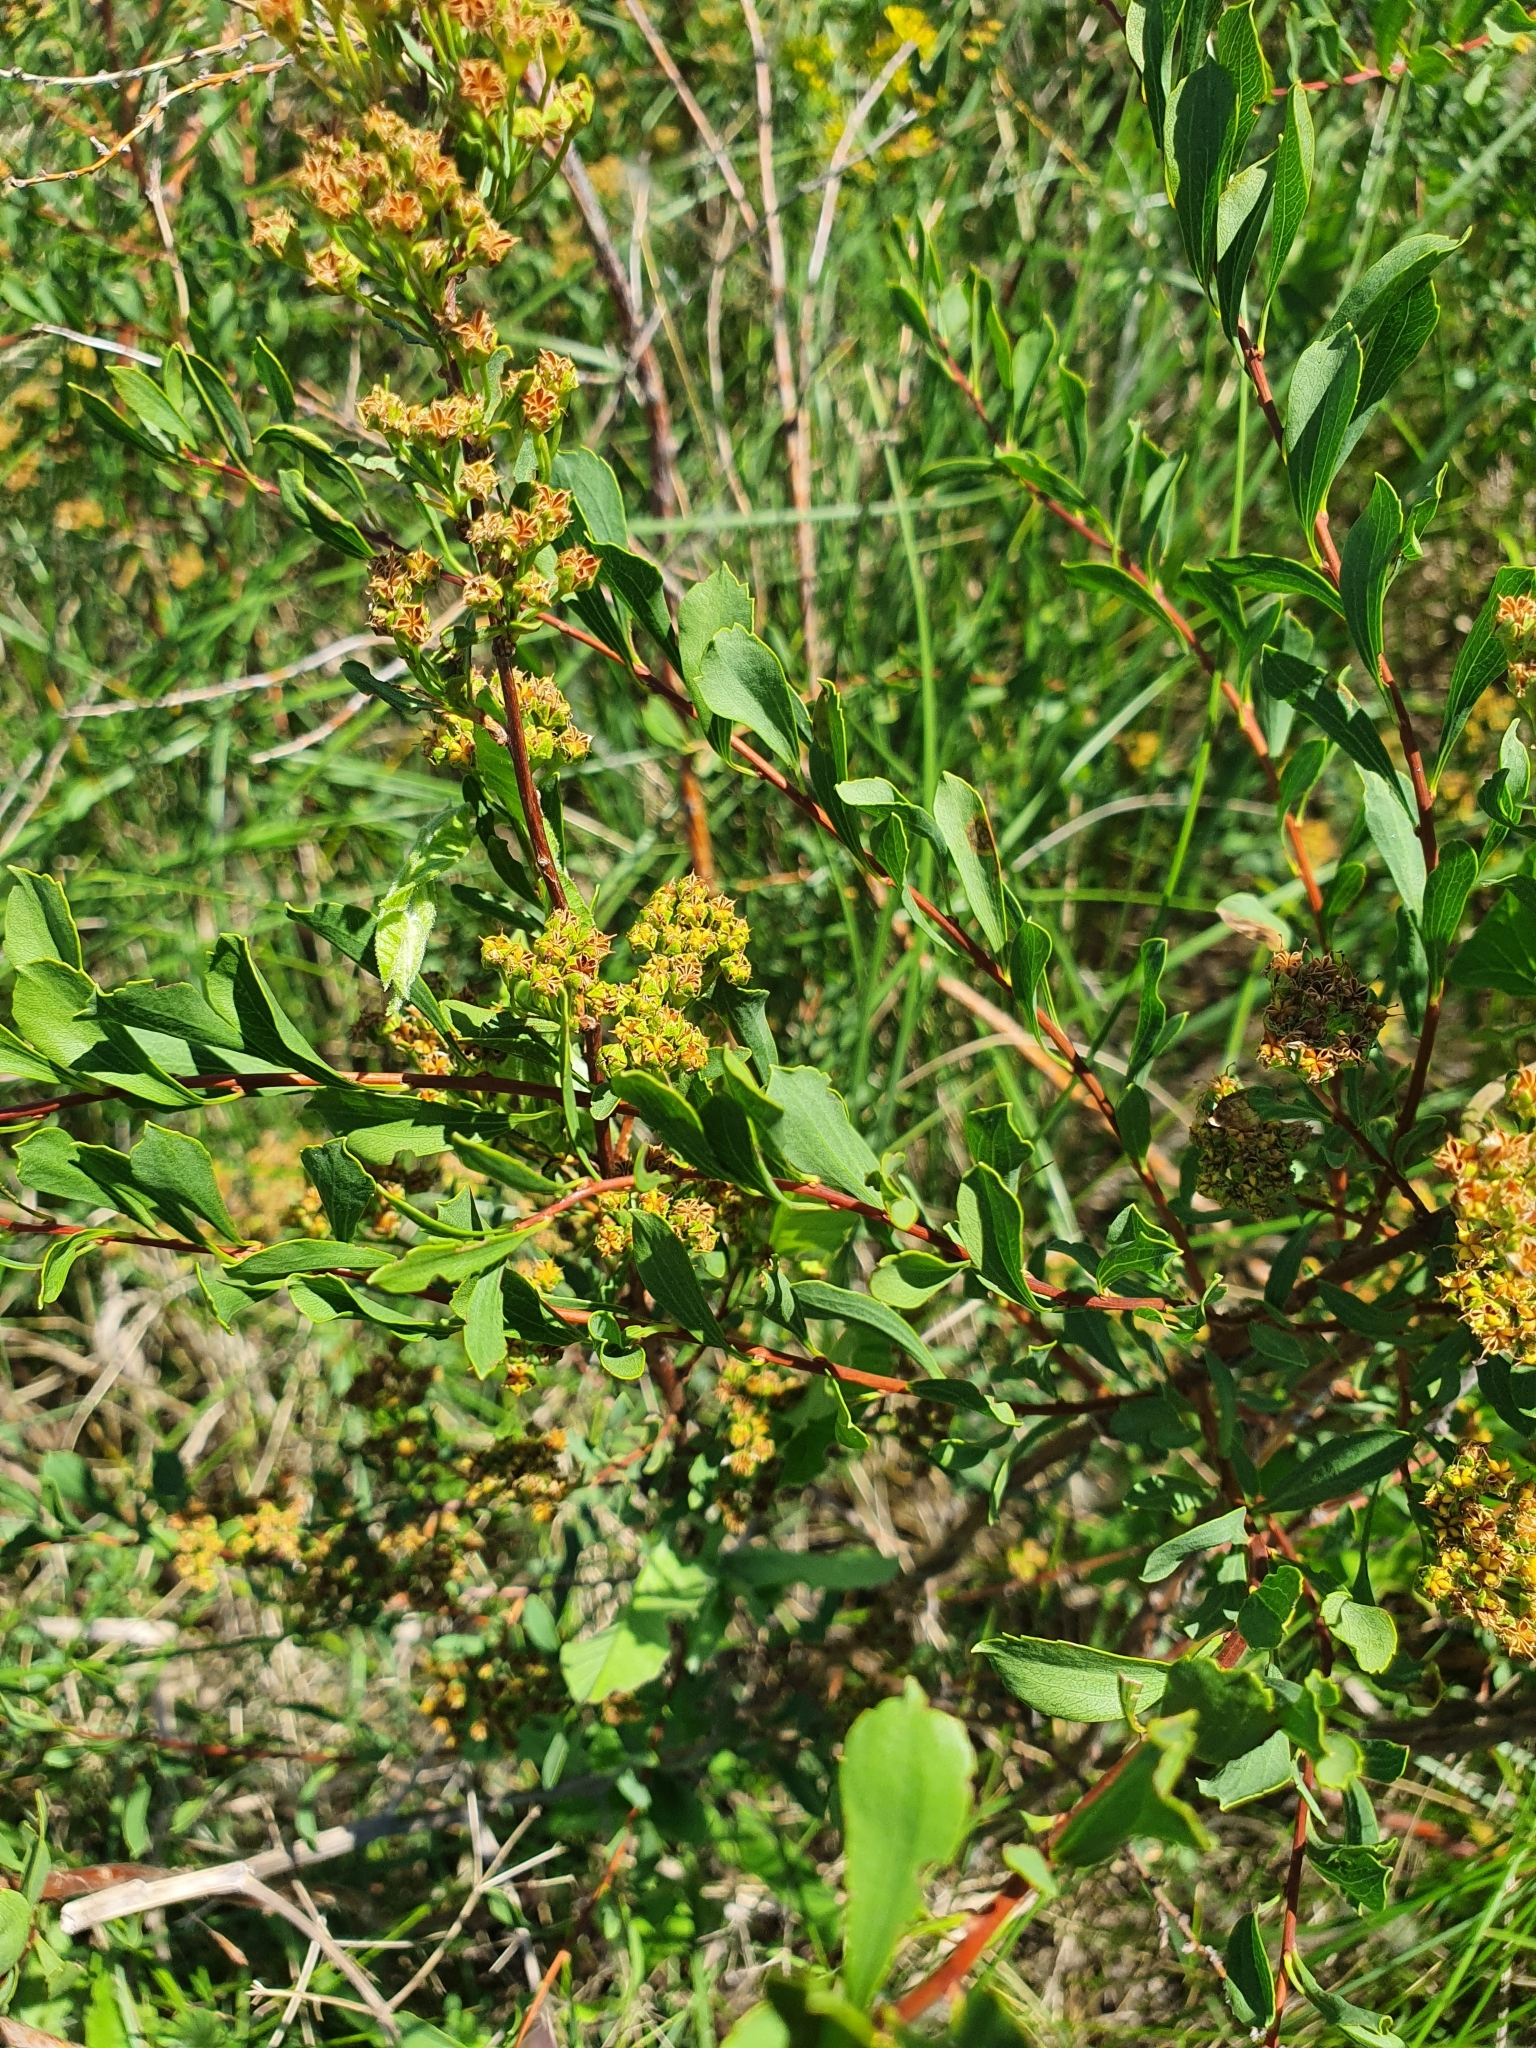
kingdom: Plantae
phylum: Tracheophyta
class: Magnoliopsida
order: Rosales
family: Rosaceae
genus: Spiraea
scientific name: Spiraea crenata
